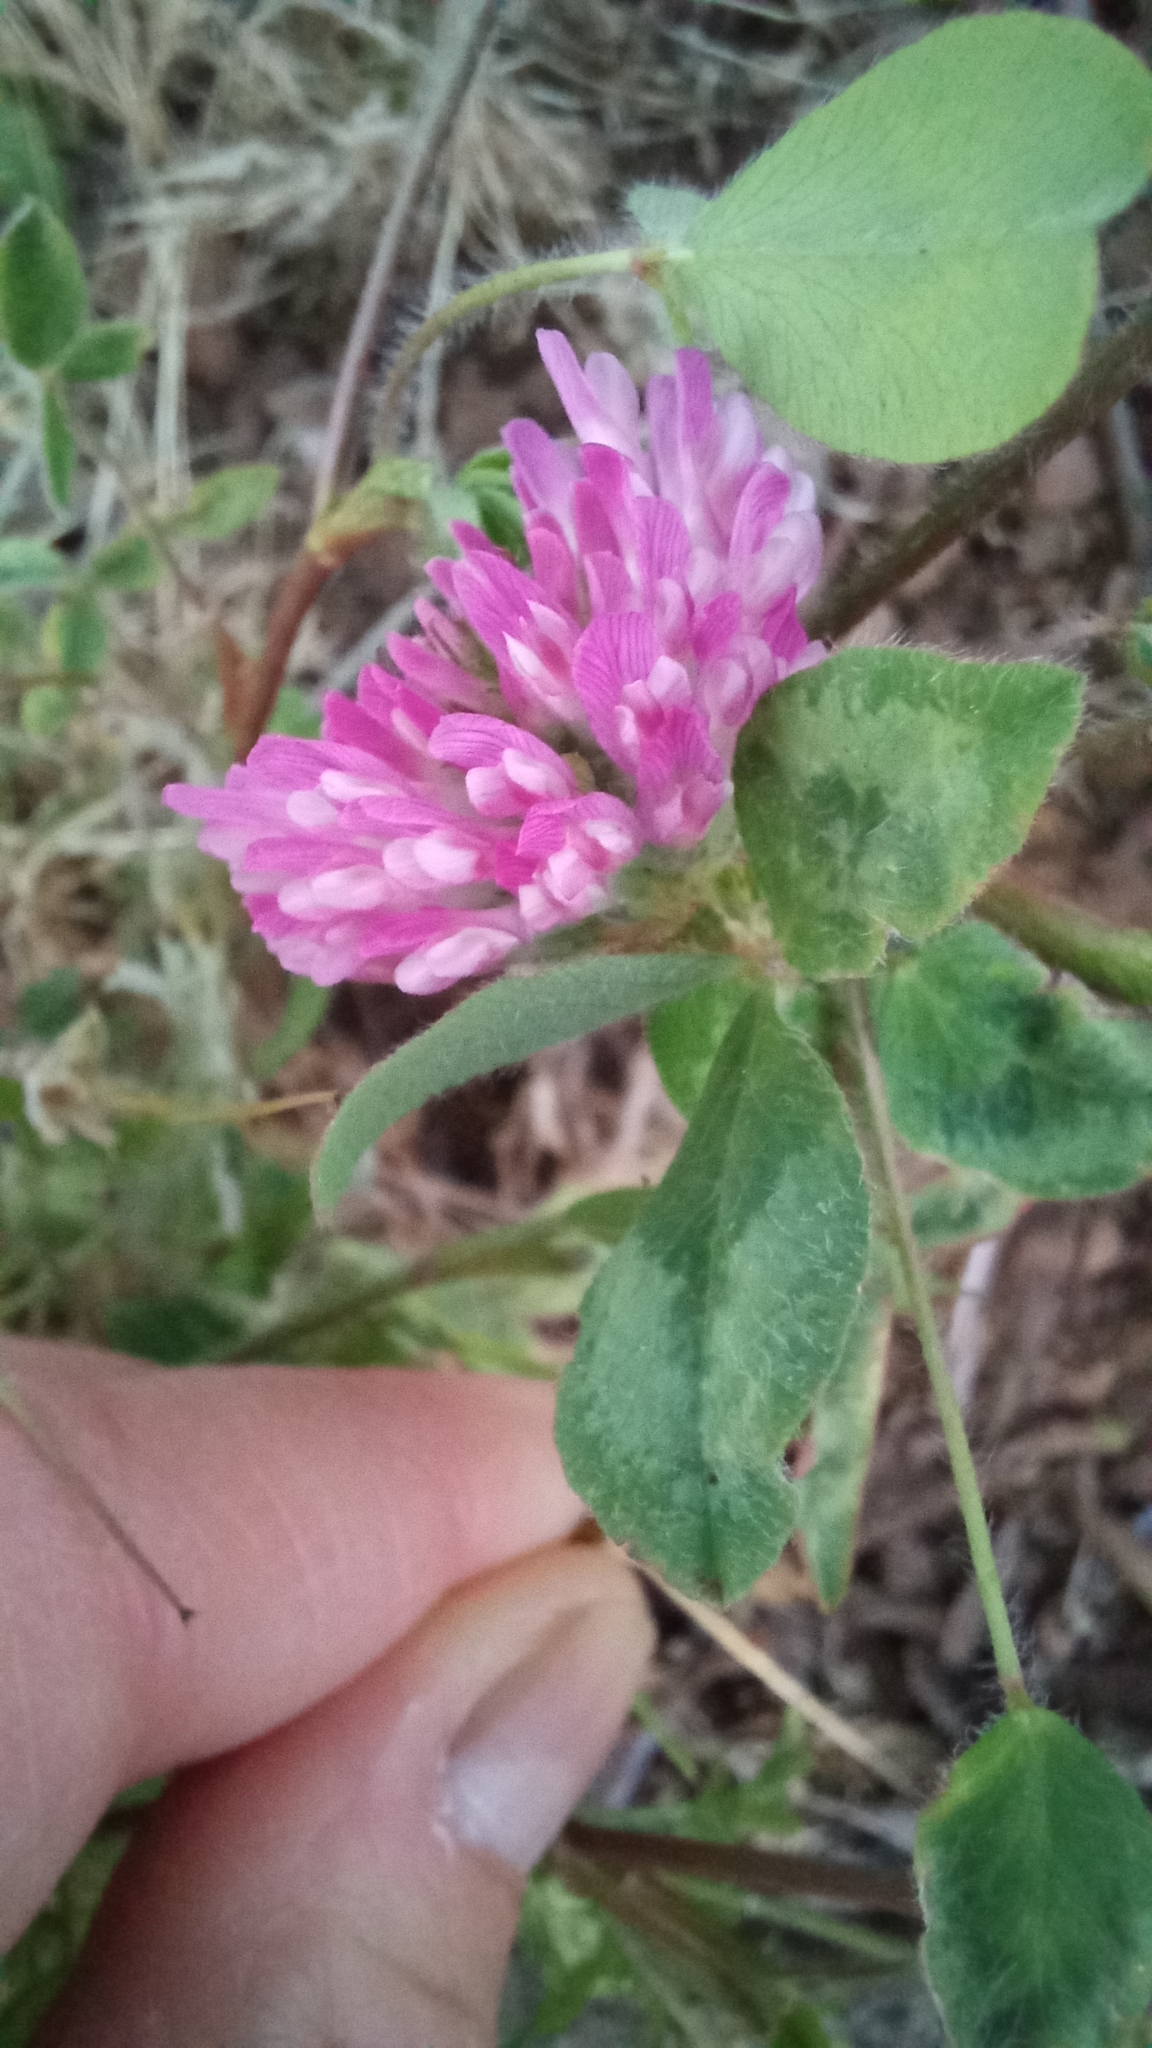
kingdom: Plantae
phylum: Tracheophyta
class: Magnoliopsida
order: Fabales
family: Fabaceae
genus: Trifolium
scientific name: Trifolium pratense
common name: Red clover
